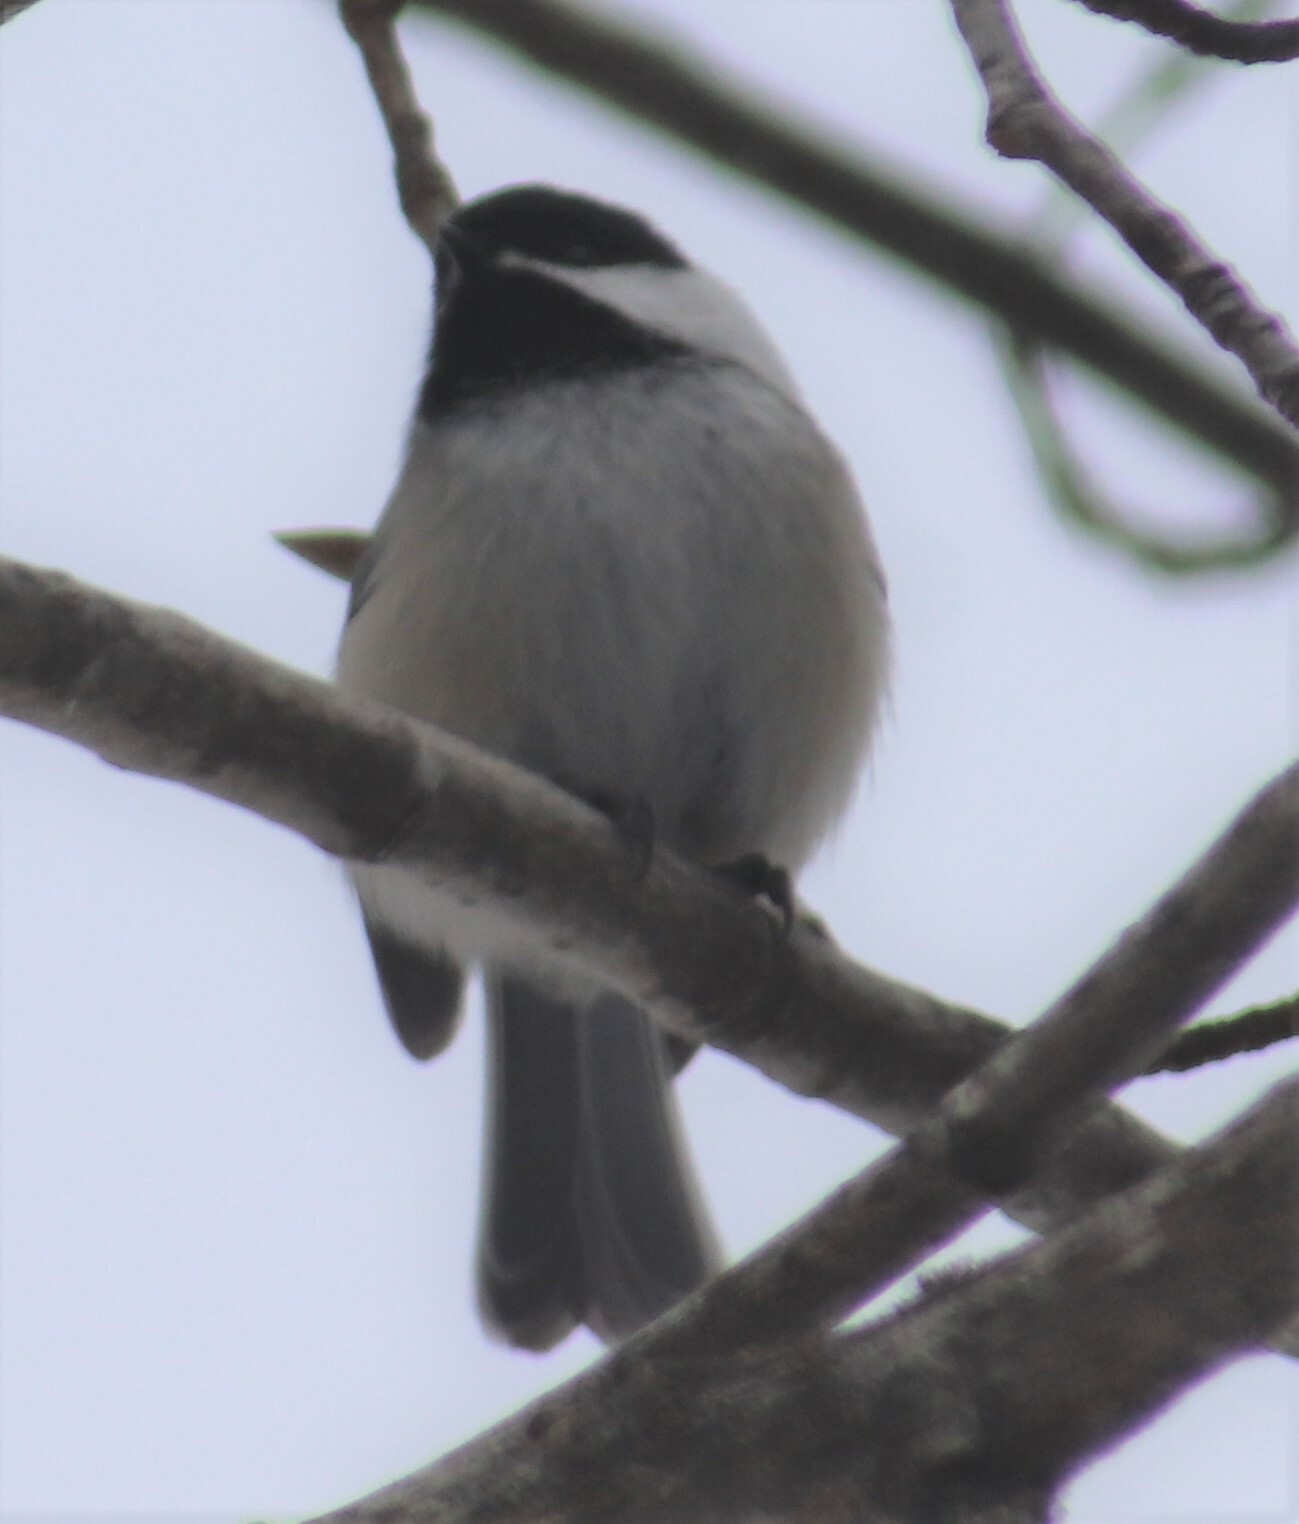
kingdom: Animalia
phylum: Chordata
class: Aves
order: Passeriformes
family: Paridae
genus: Poecile
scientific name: Poecile atricapillus
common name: Black-capped chickadee
